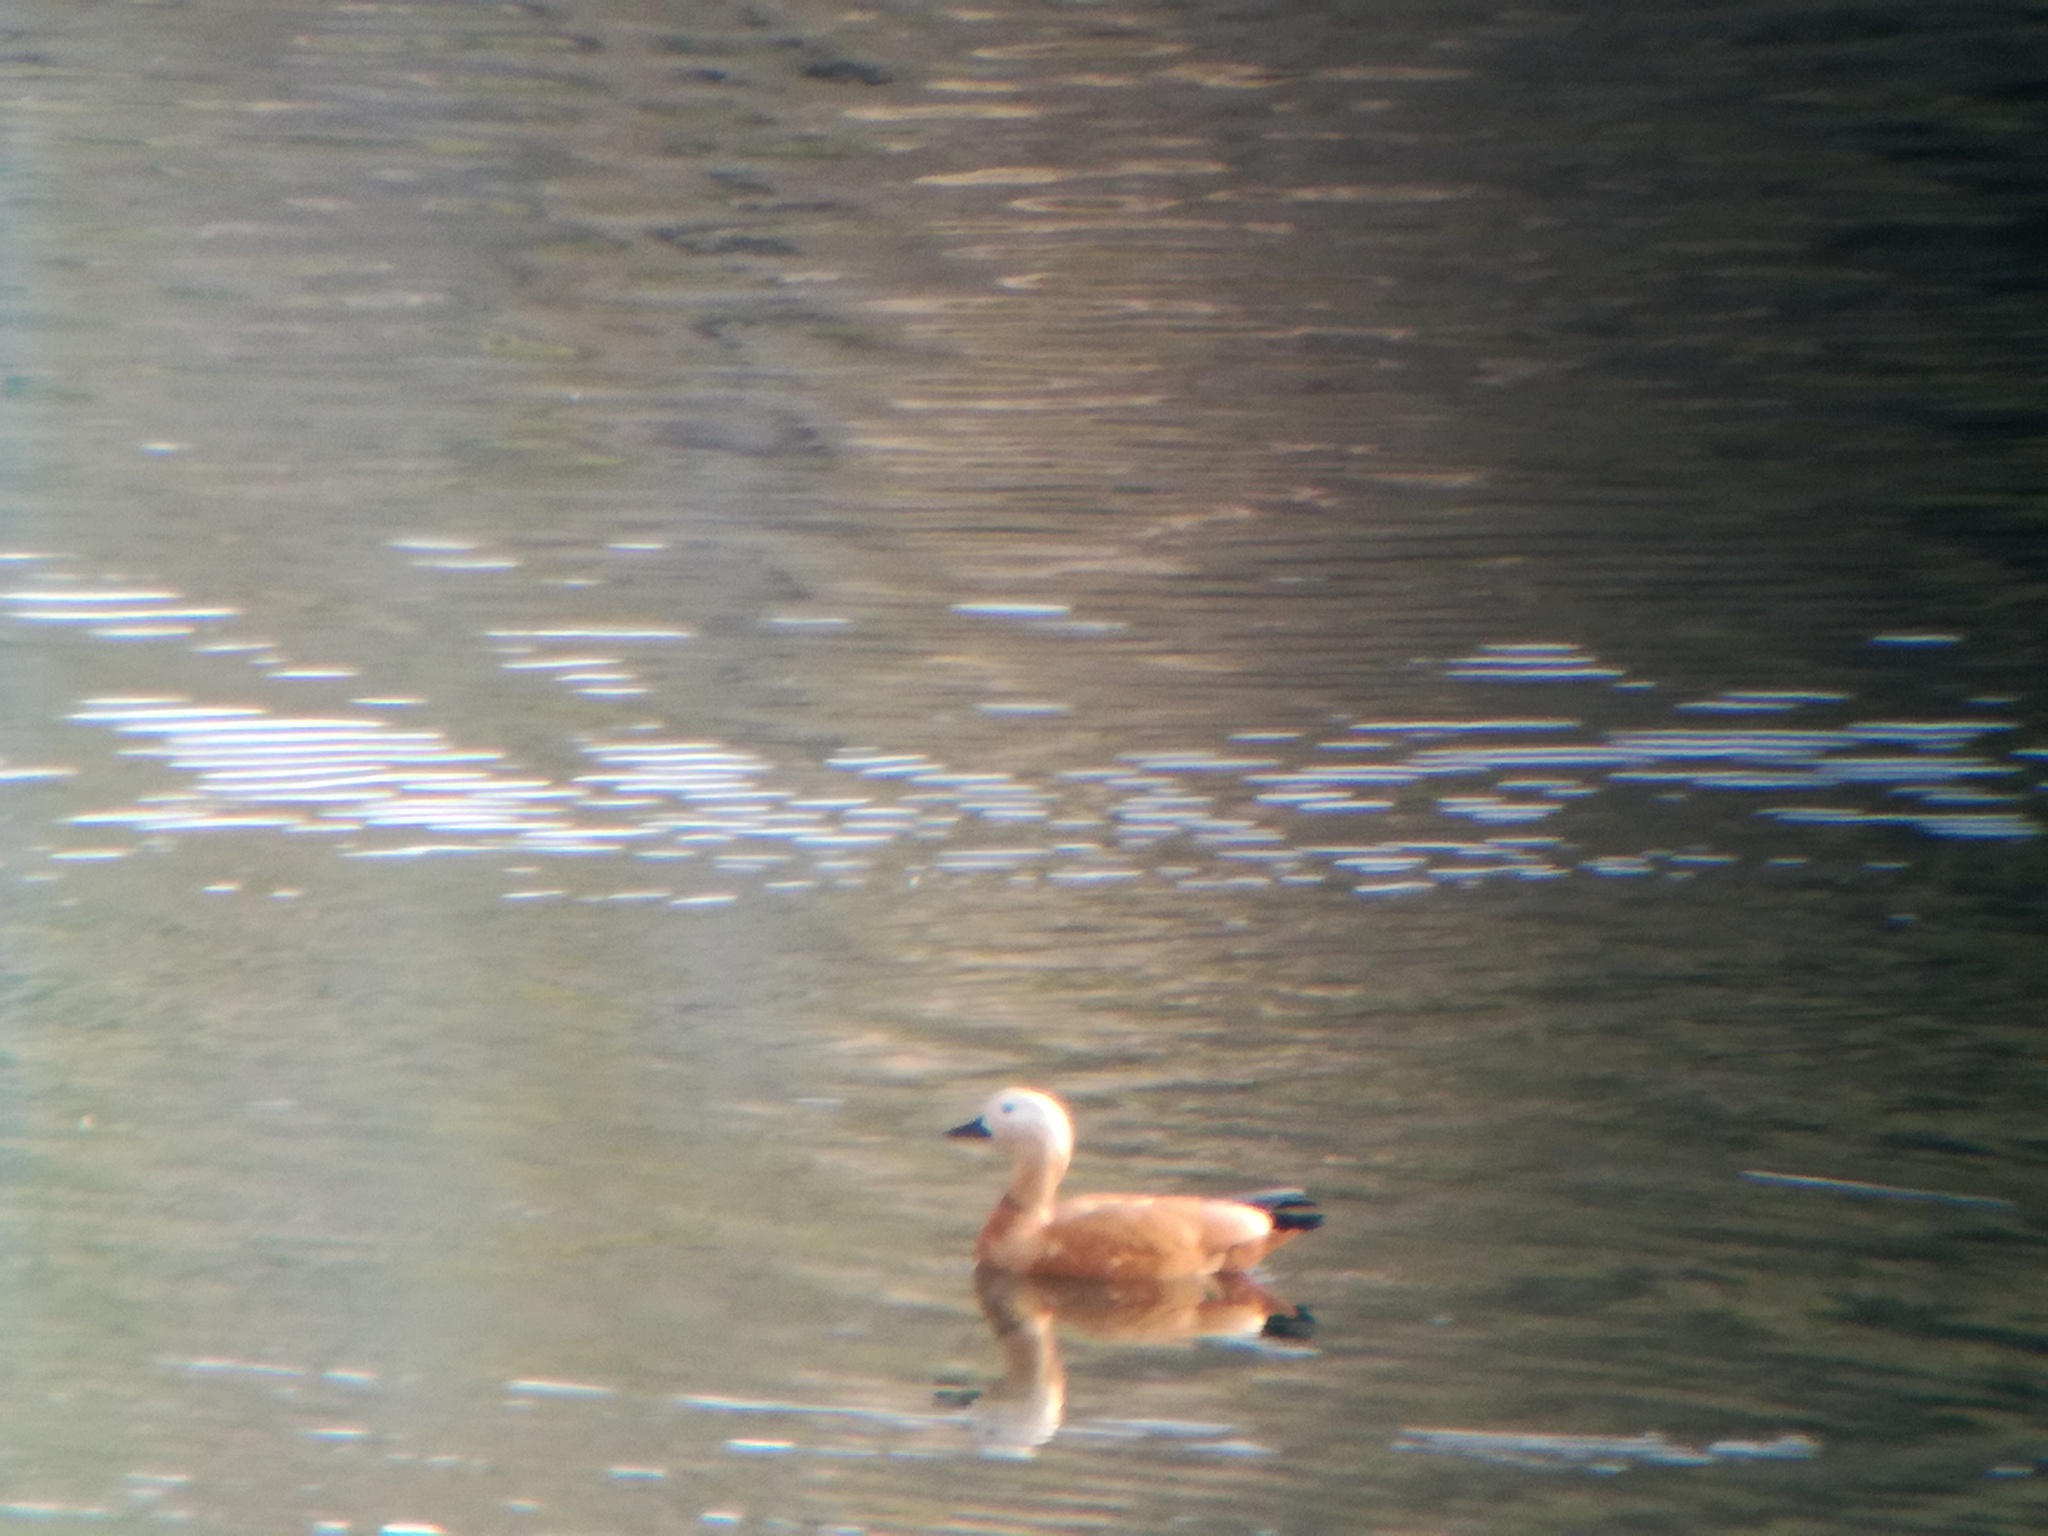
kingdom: Animalia
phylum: Chordata
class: Aves
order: Anseriformes
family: Anatidae
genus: Tadorna
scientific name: Tadorna ferruginea
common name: Ruddy shelduck
